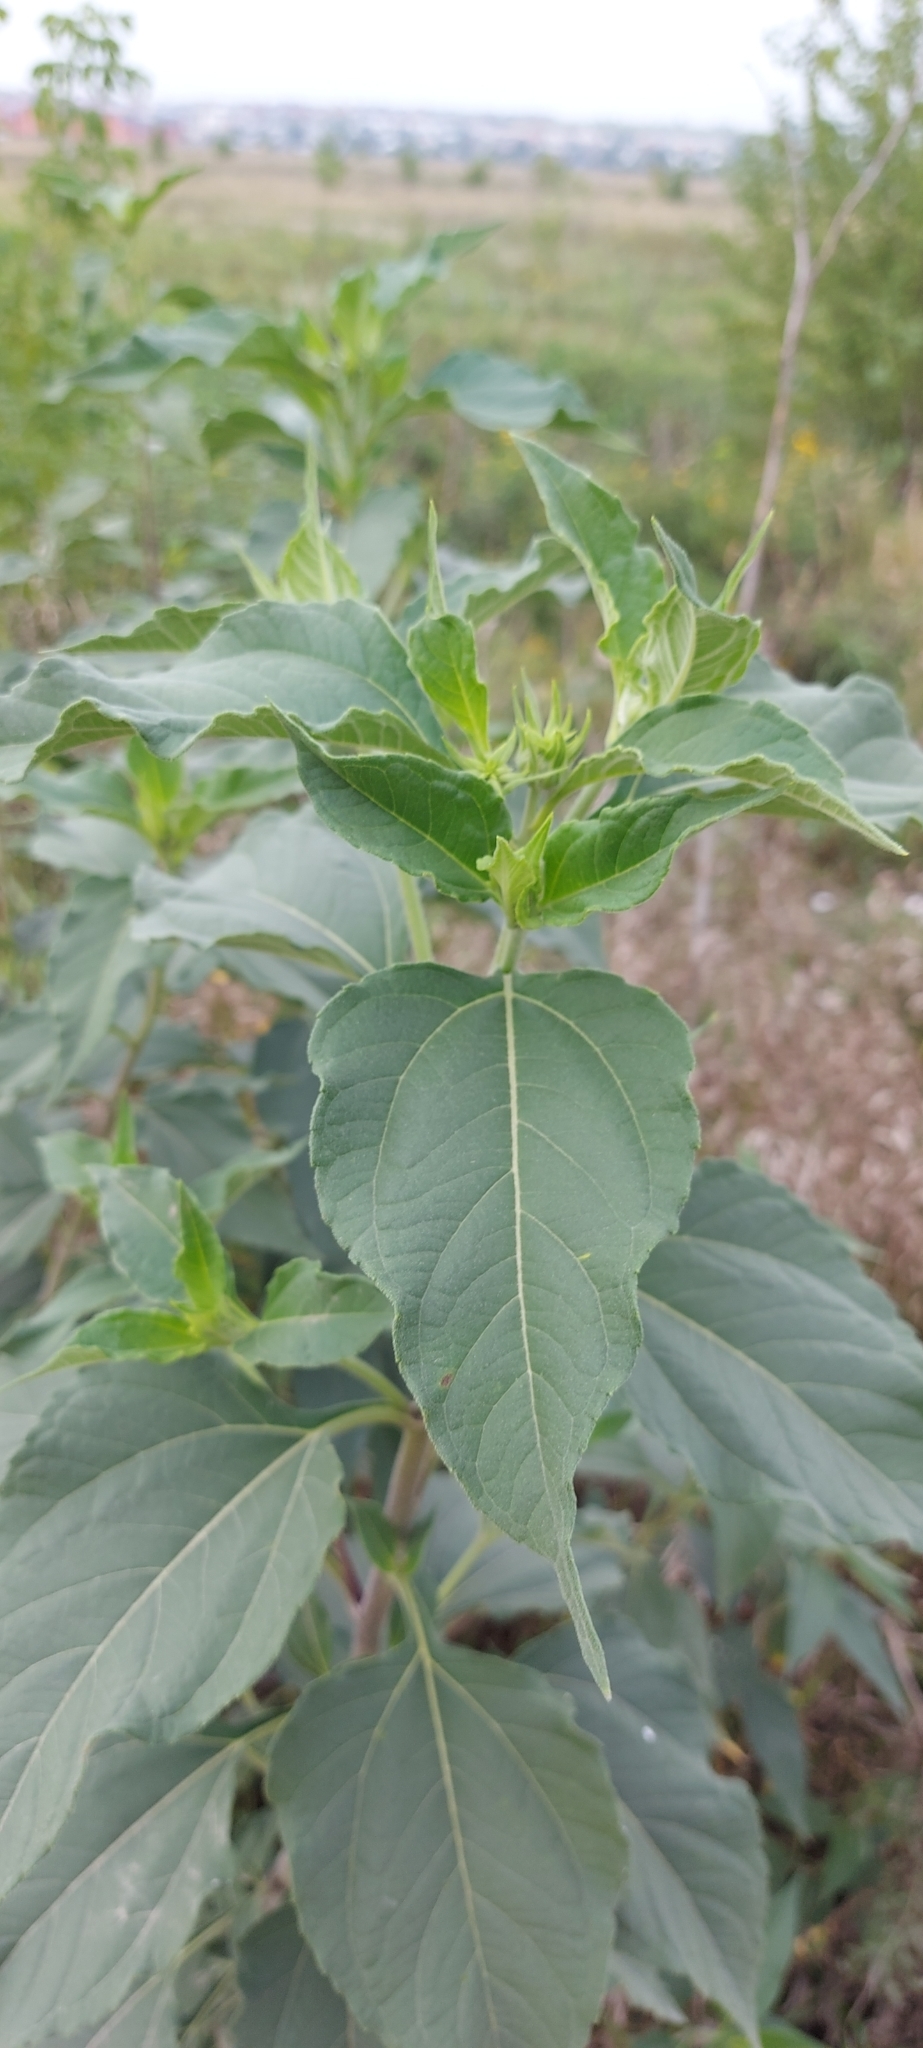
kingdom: Plantae
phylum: Tracheophyta
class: Magnoliopsida
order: Asterales
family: Asteraceae
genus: Helianthus
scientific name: Helianthus tuberosus
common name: Jerusalem artichoke
